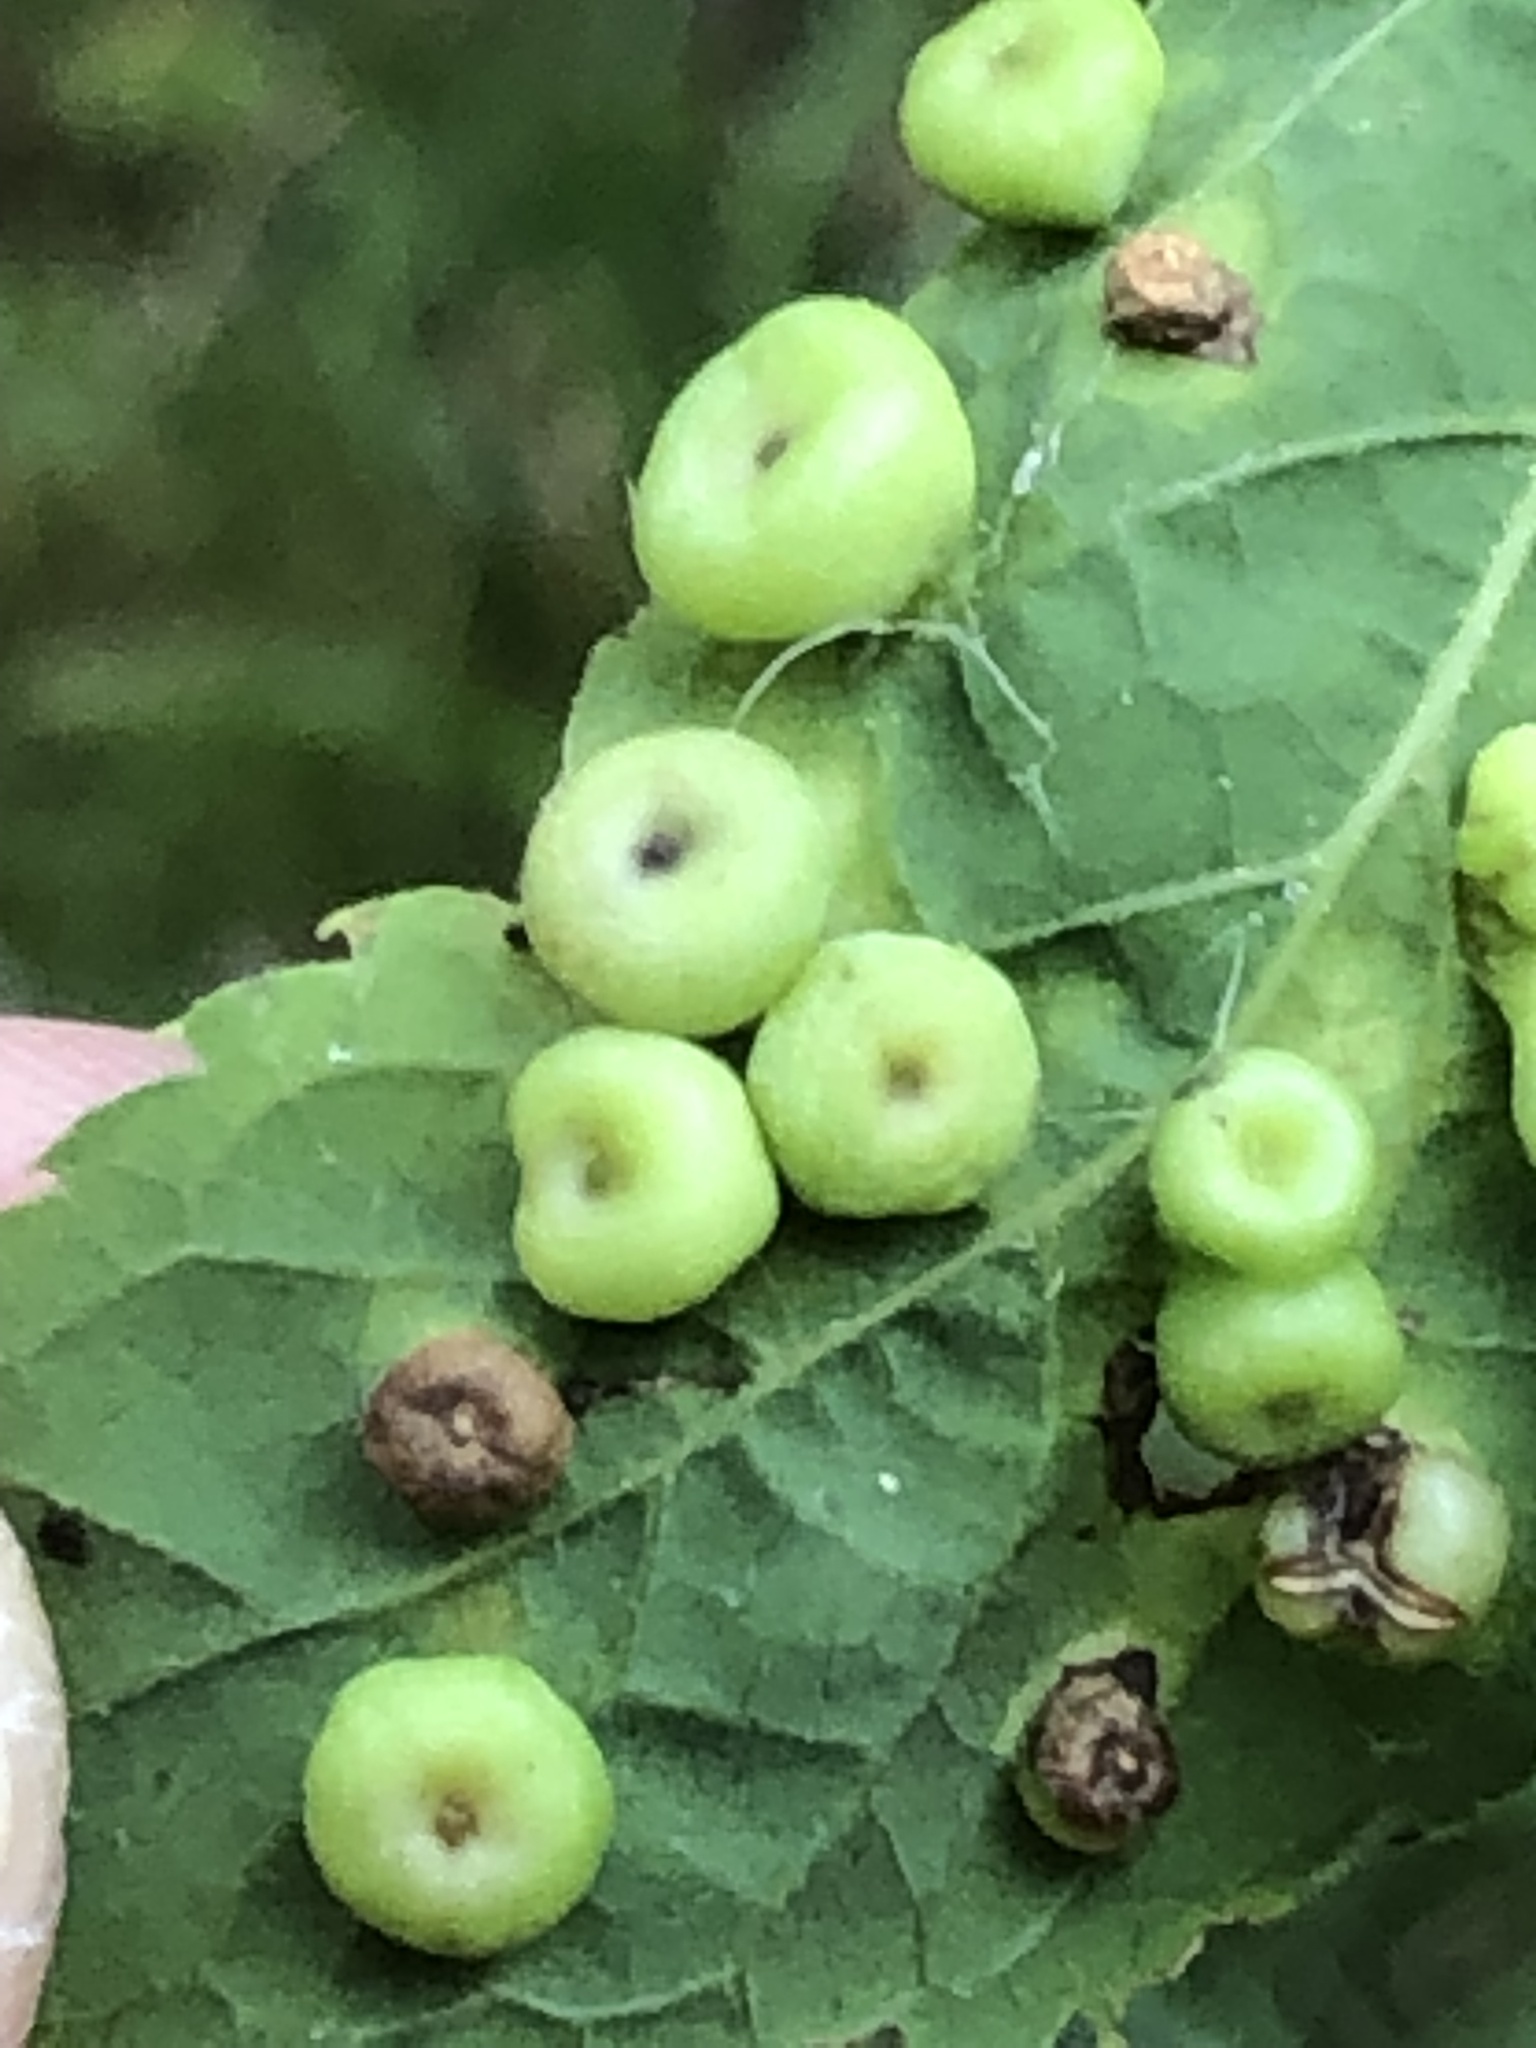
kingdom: Animalia
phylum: Arthropoda
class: Insecta
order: Hemiptera
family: Aphalaridae
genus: Pachypsylla
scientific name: Pachypsylla celtidismamma
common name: Hackberry nipplegall psyllid
